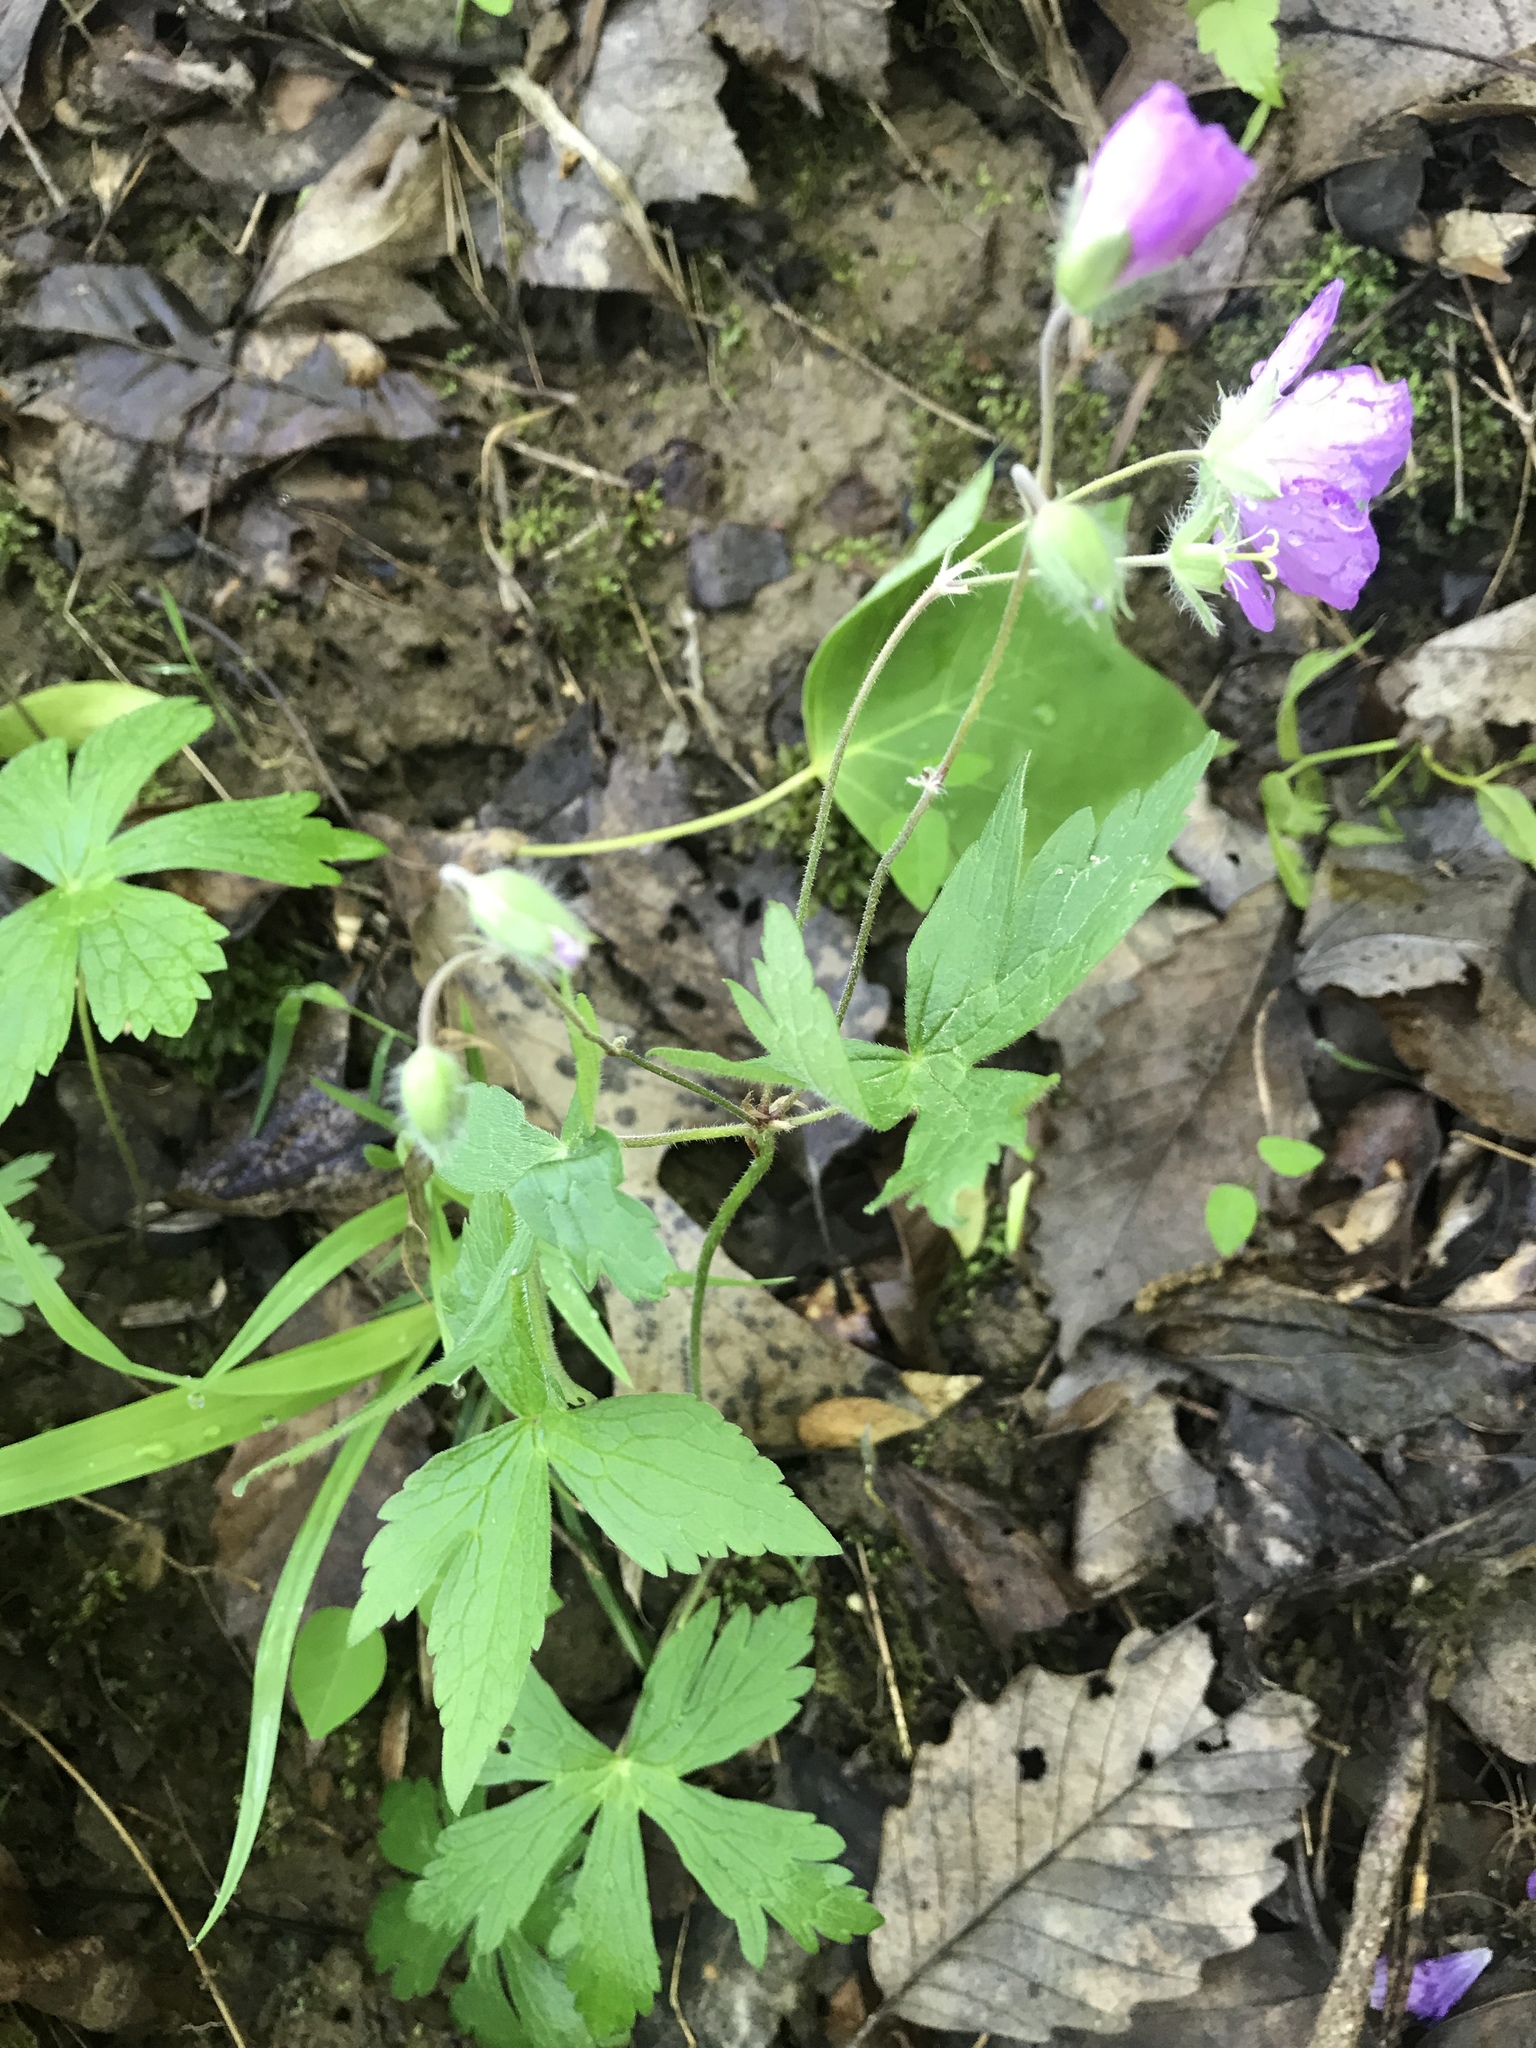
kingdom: Plantae
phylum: Tracheophyta
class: Magnoliopsida
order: Geraniales
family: Geraniaceae
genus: Geranium
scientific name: Geranium maculatum
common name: Spotted geranium
